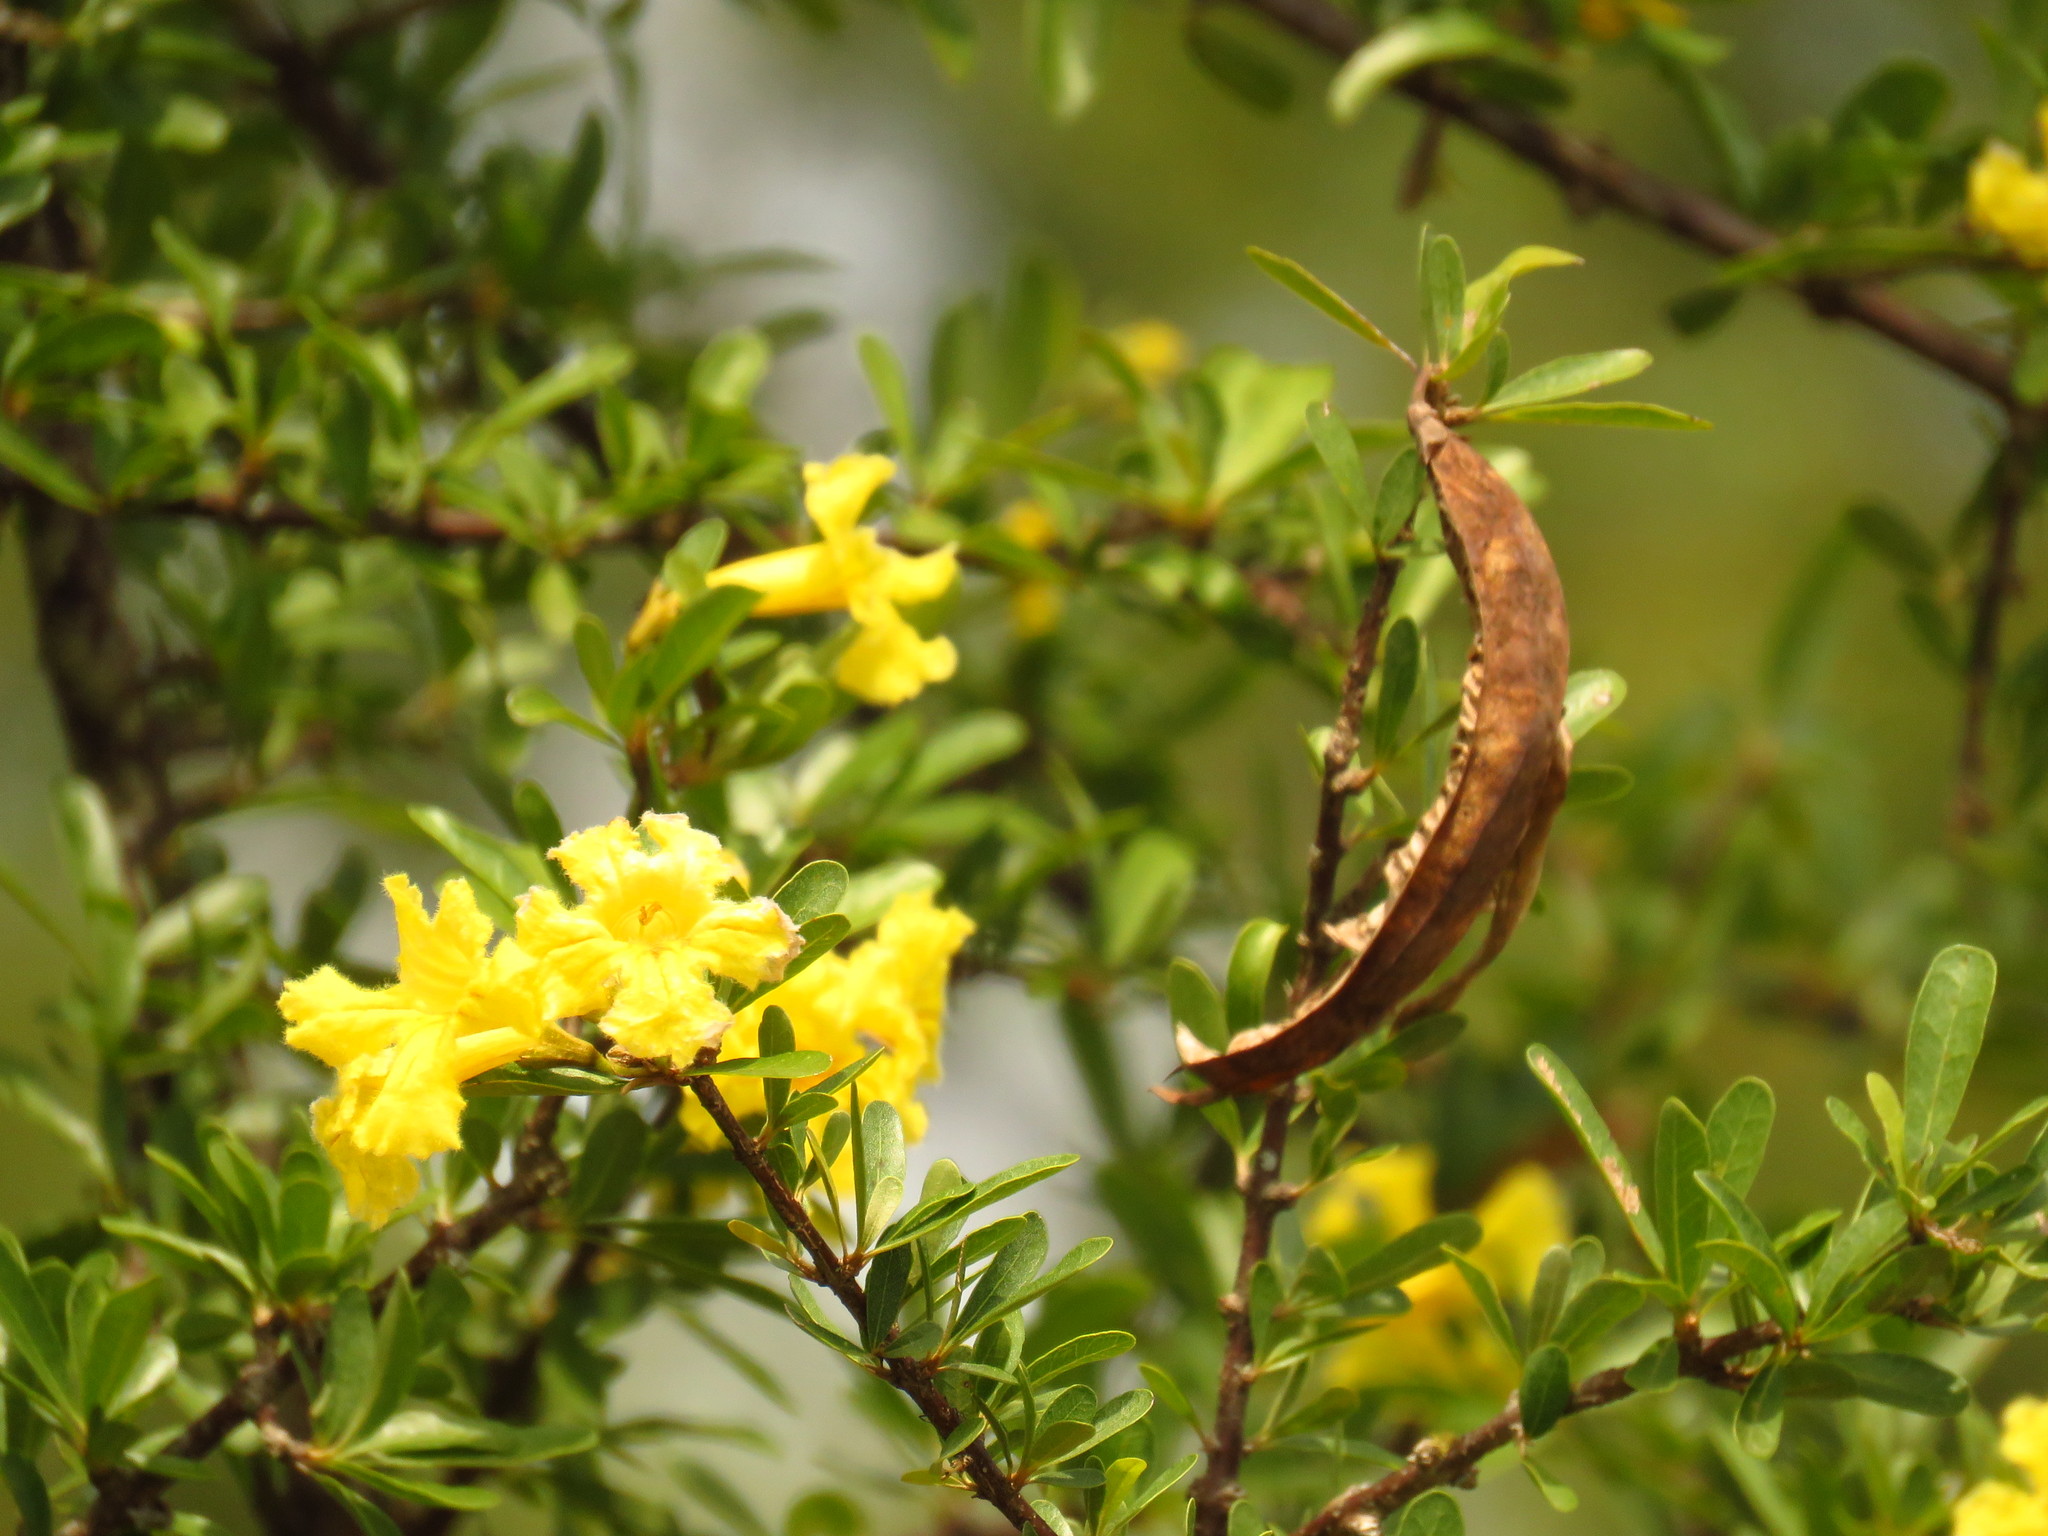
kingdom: Plantae
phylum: Tracheophyta
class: Magnoliopsida
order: Lamiales
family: Bignoniaceae
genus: Tabebuia
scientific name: Tabebuia nodosa
